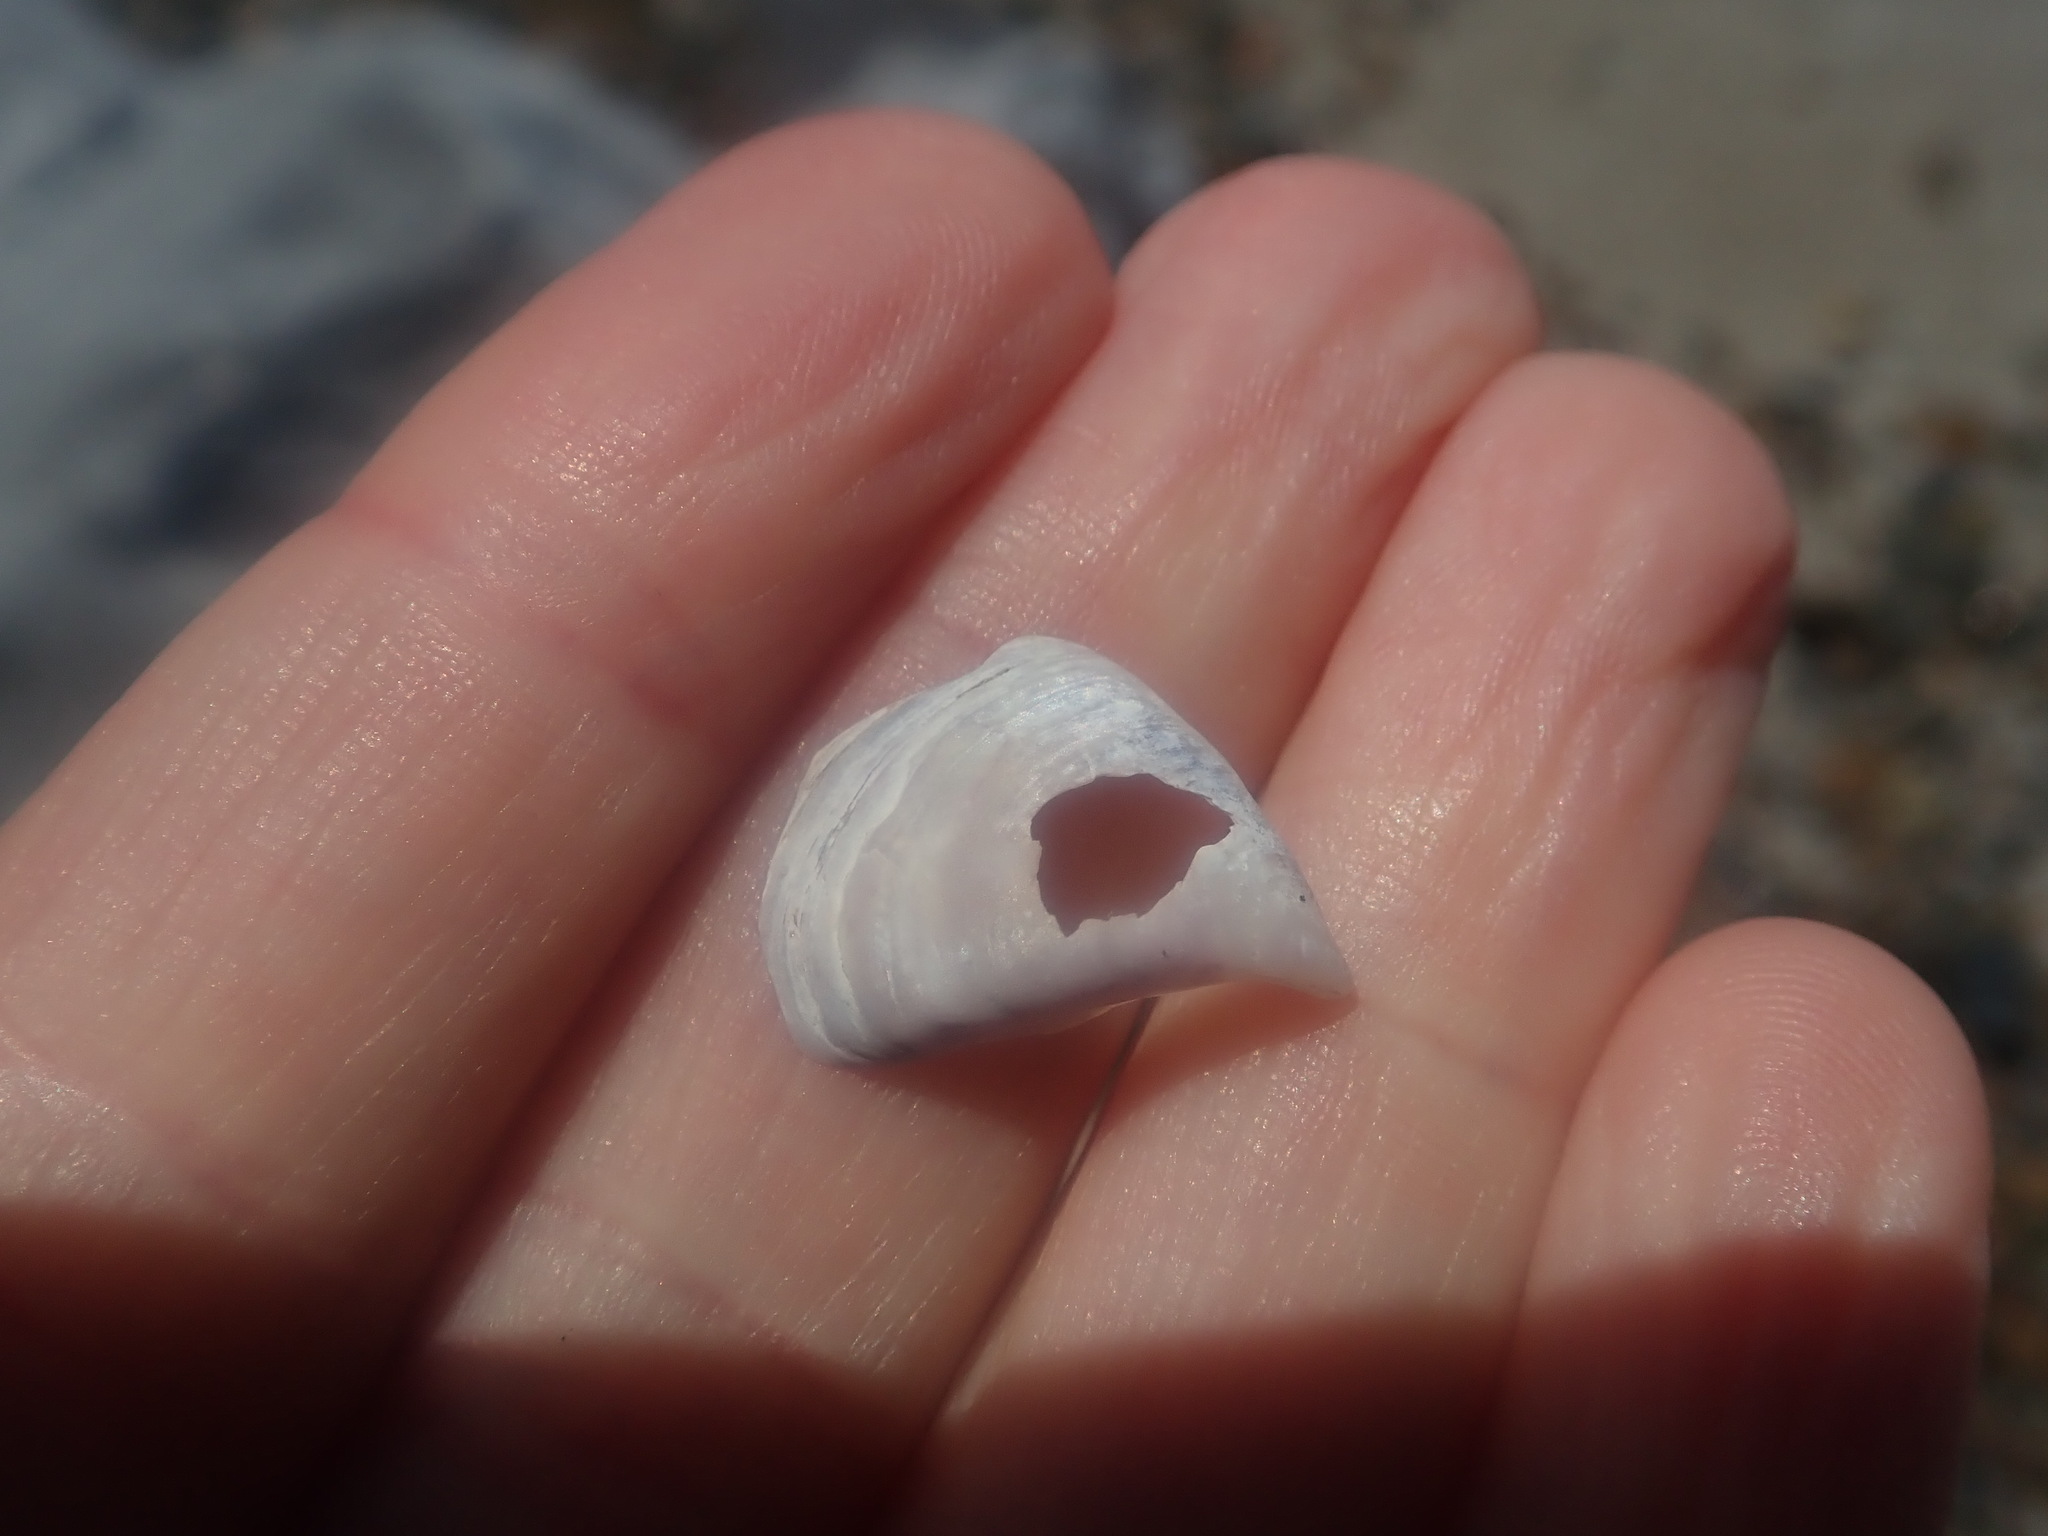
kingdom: Animalia
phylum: Mollusca
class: Bivalvia
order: Myida
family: Dreissenidae
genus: Dreissena
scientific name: Dreissena bugensis
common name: Quagga mussel
